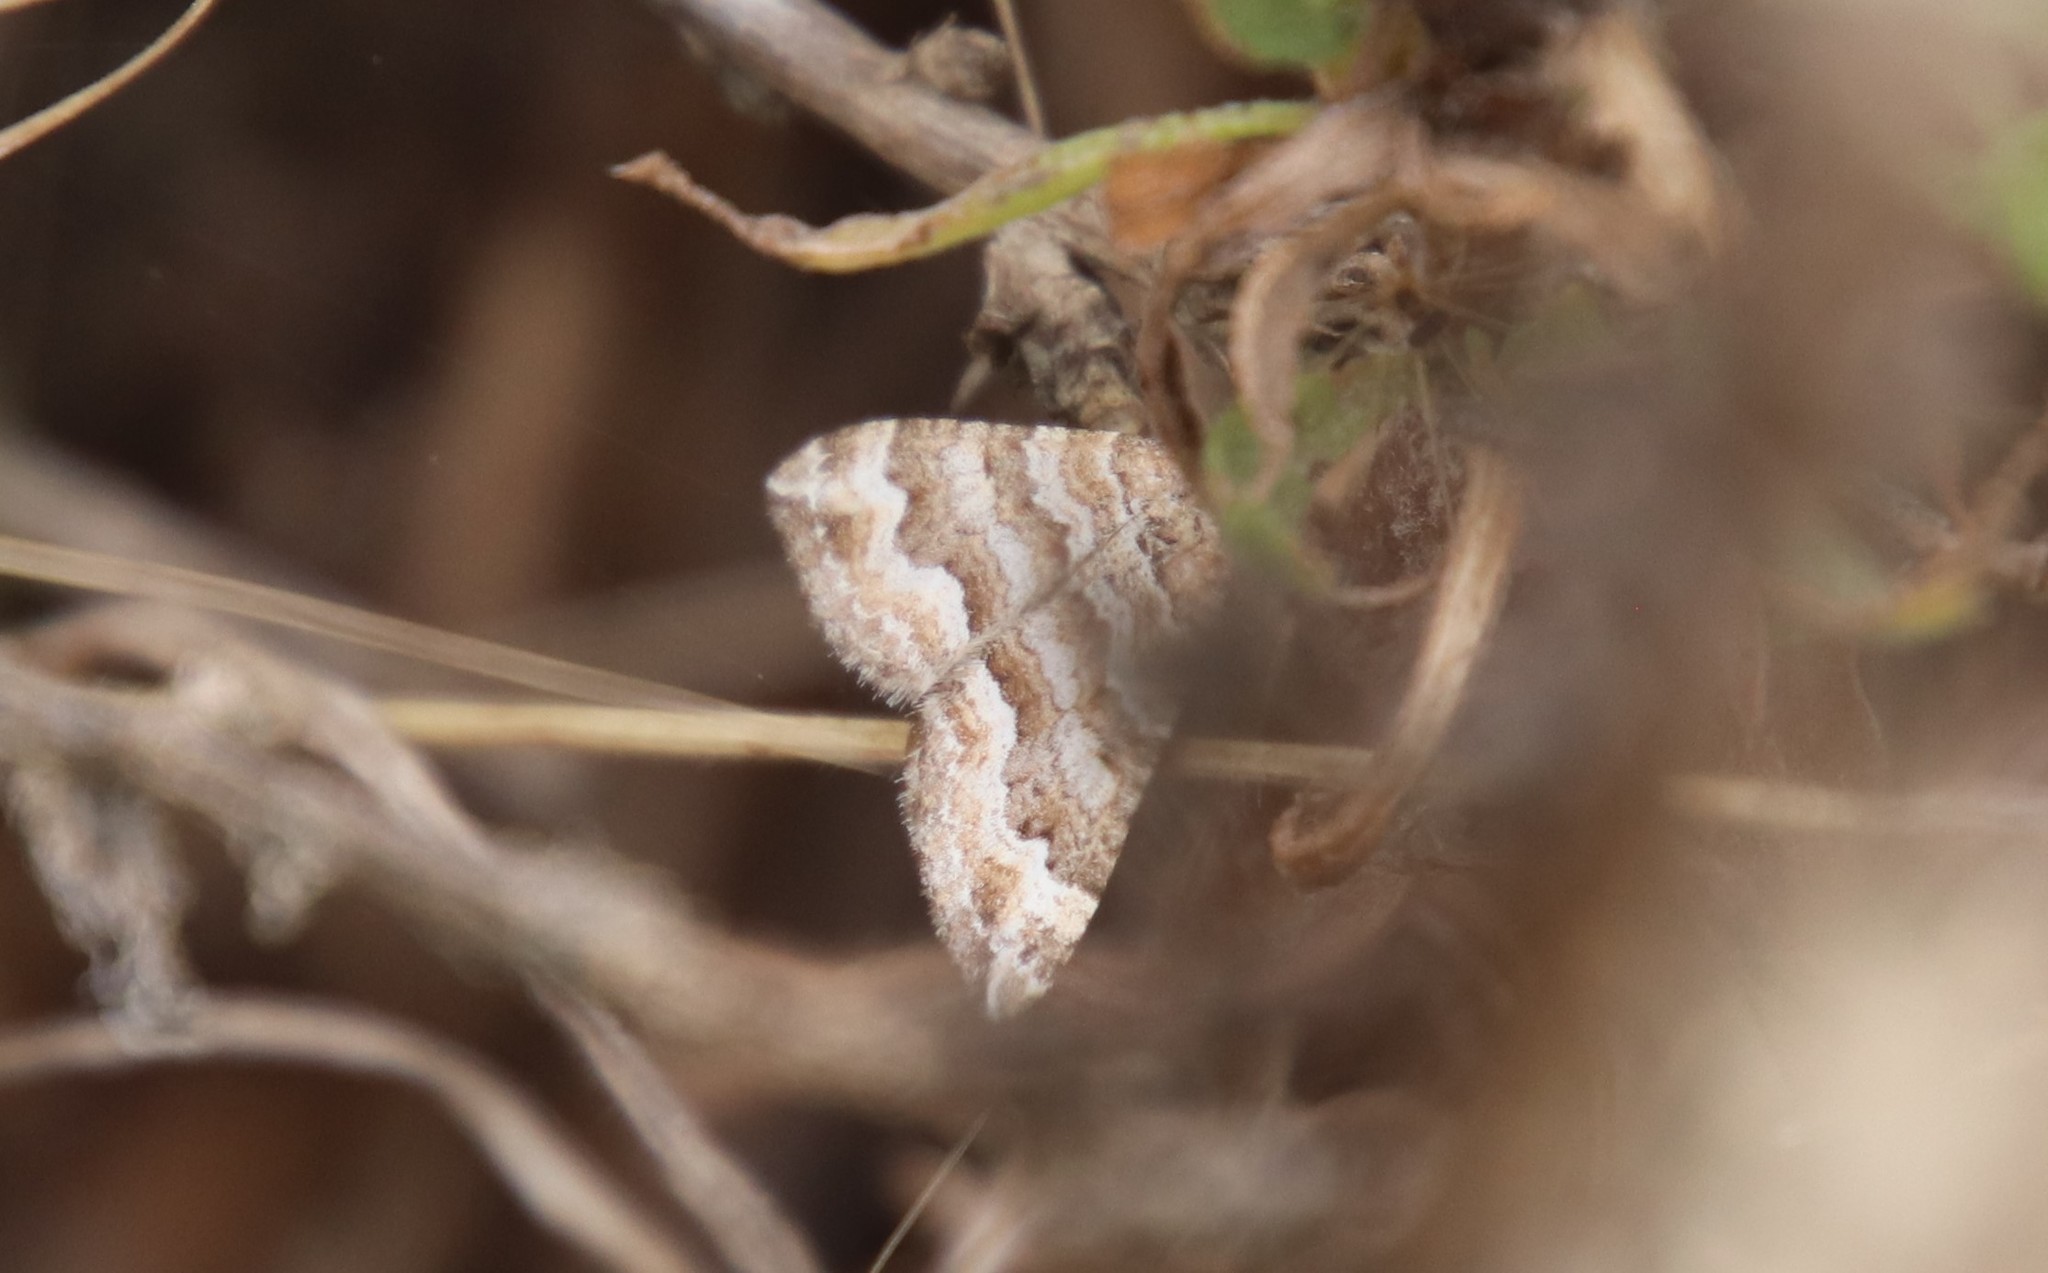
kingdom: Animalia
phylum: Arthropoda
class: Insecta
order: Lepidoptera
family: Geometridae
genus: Perizoma
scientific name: Perizoma epictata
